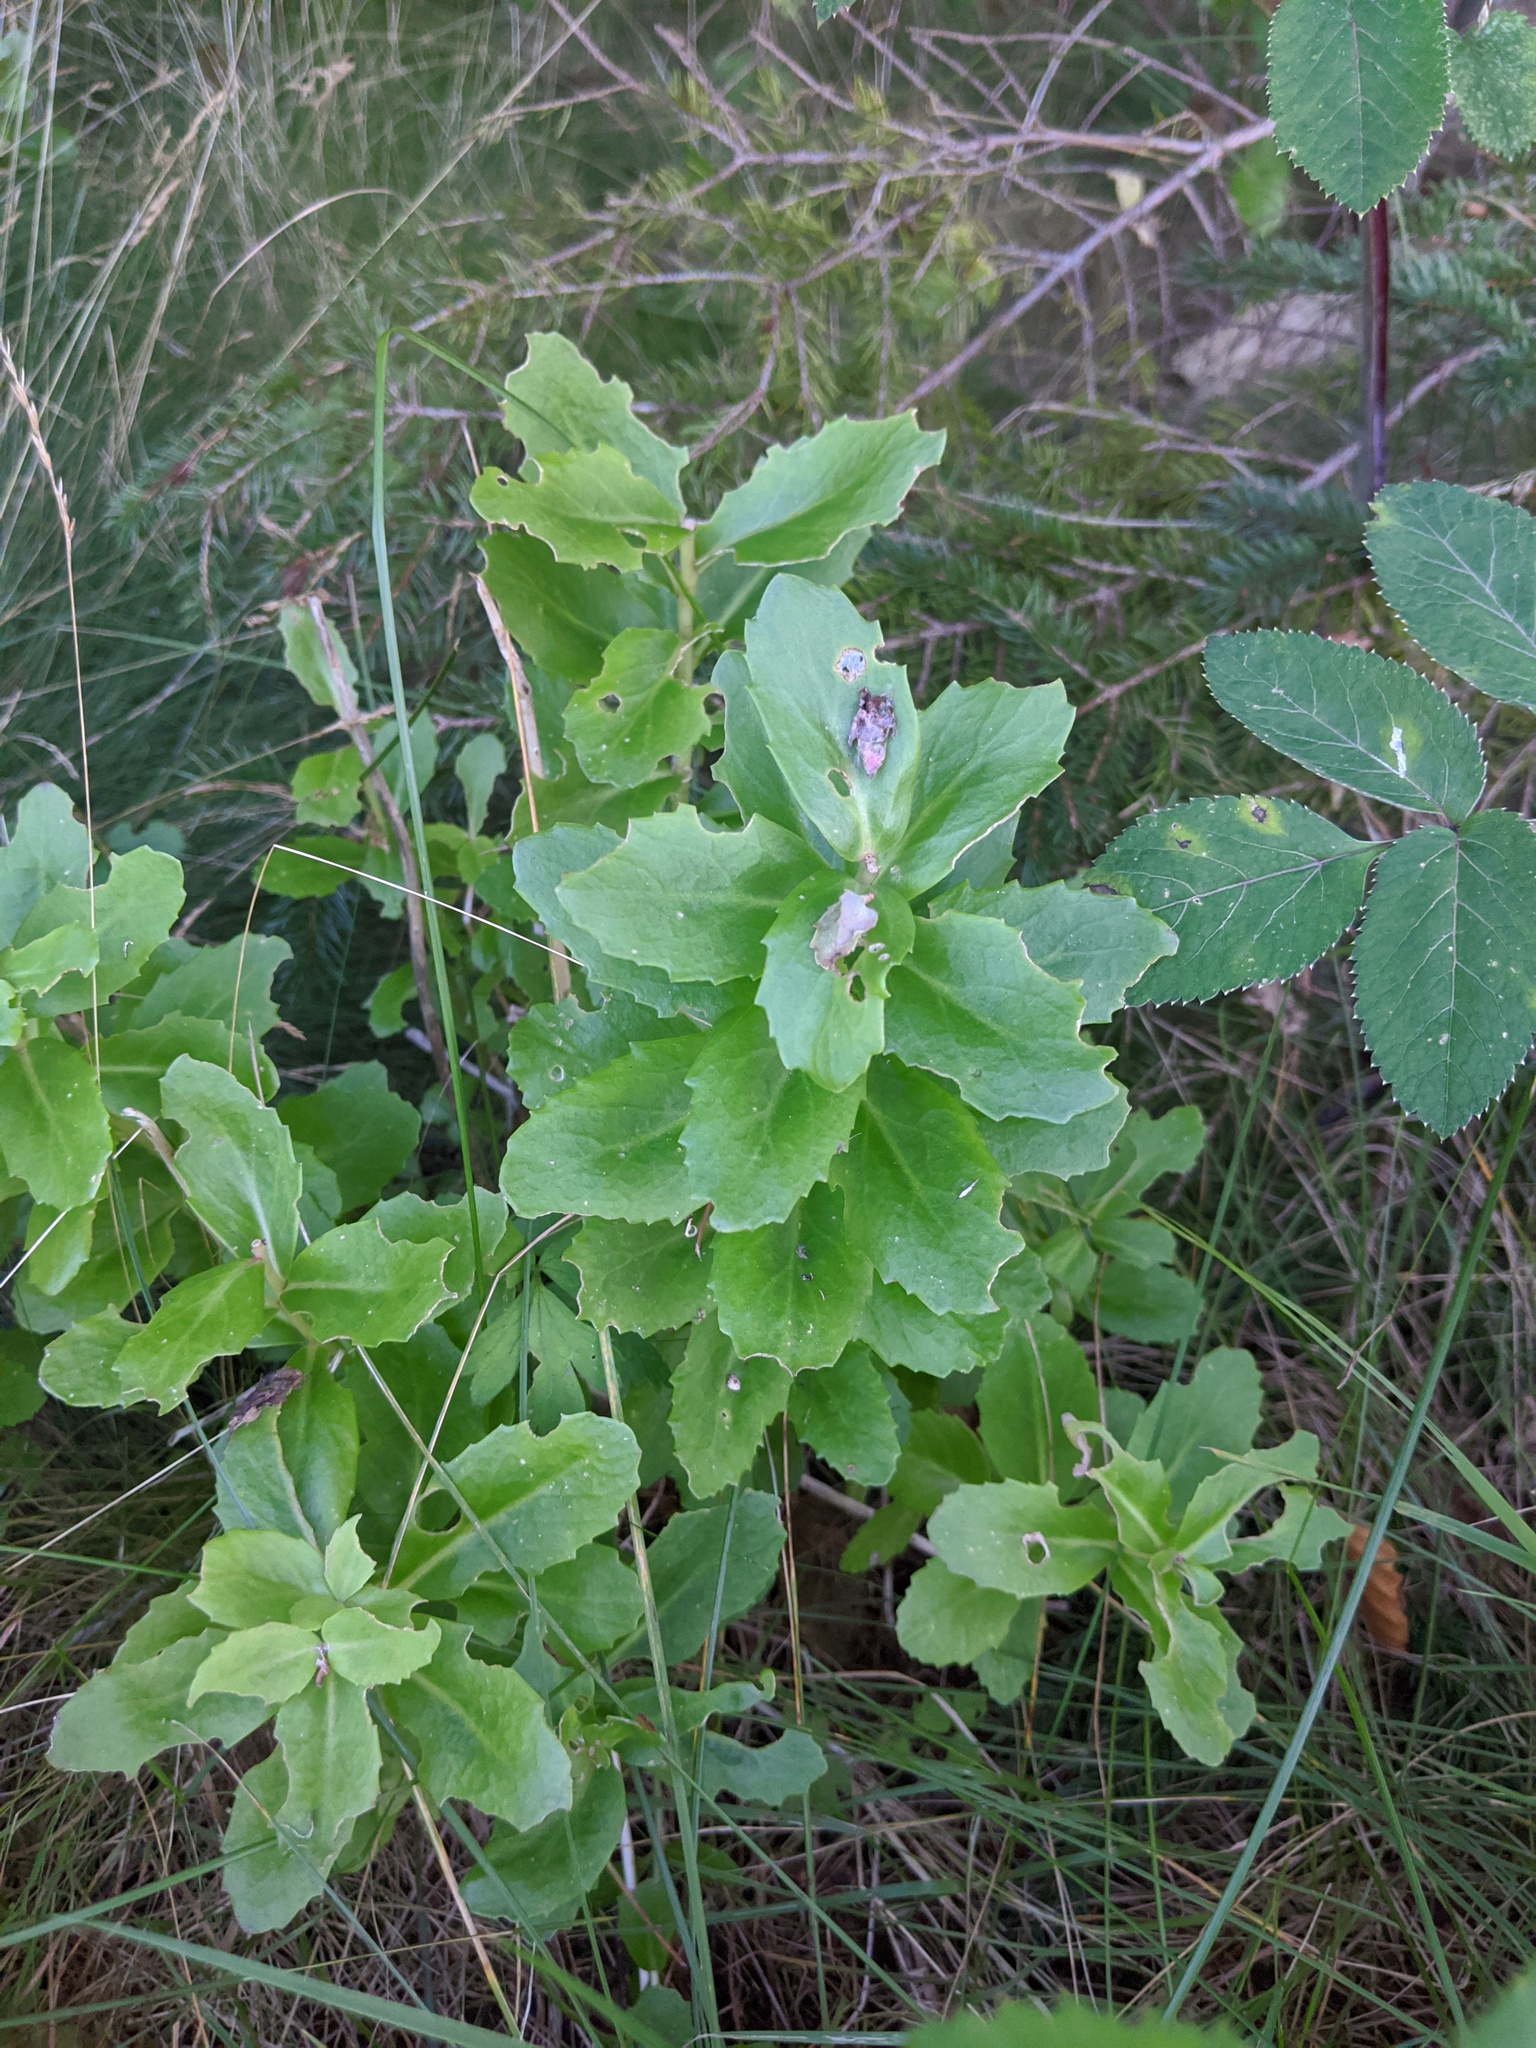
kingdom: Plantae
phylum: Tracheophyta
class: Magnoliopsida
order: Saxifragales
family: Crassulaceae
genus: Hylotelephium
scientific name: Hylotelephium telephium
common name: Live-forever
